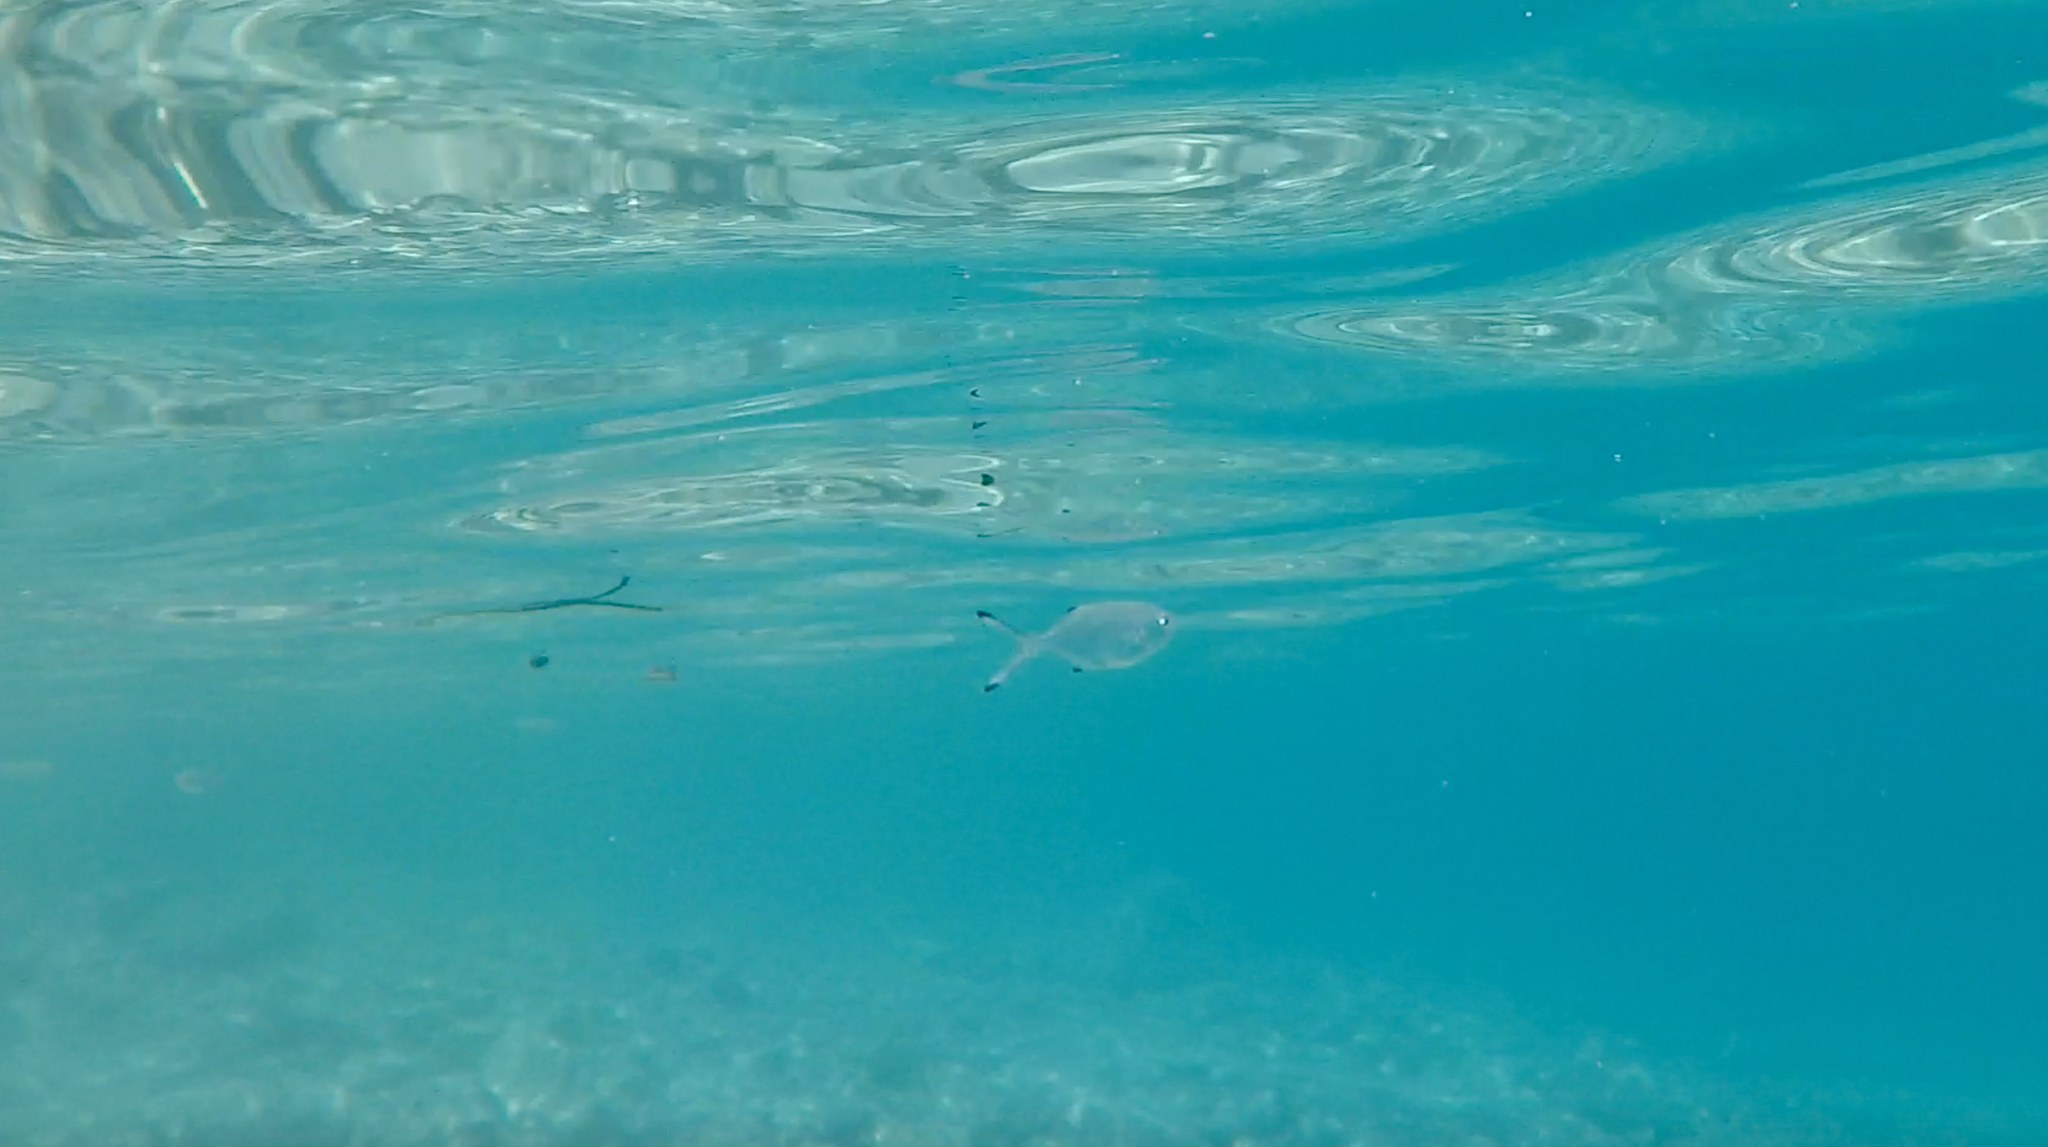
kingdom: Animalia
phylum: Chordata
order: Perciformes
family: Carangidae
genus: Trachinotus
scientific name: Trachinotus ovatus
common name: Pompano
